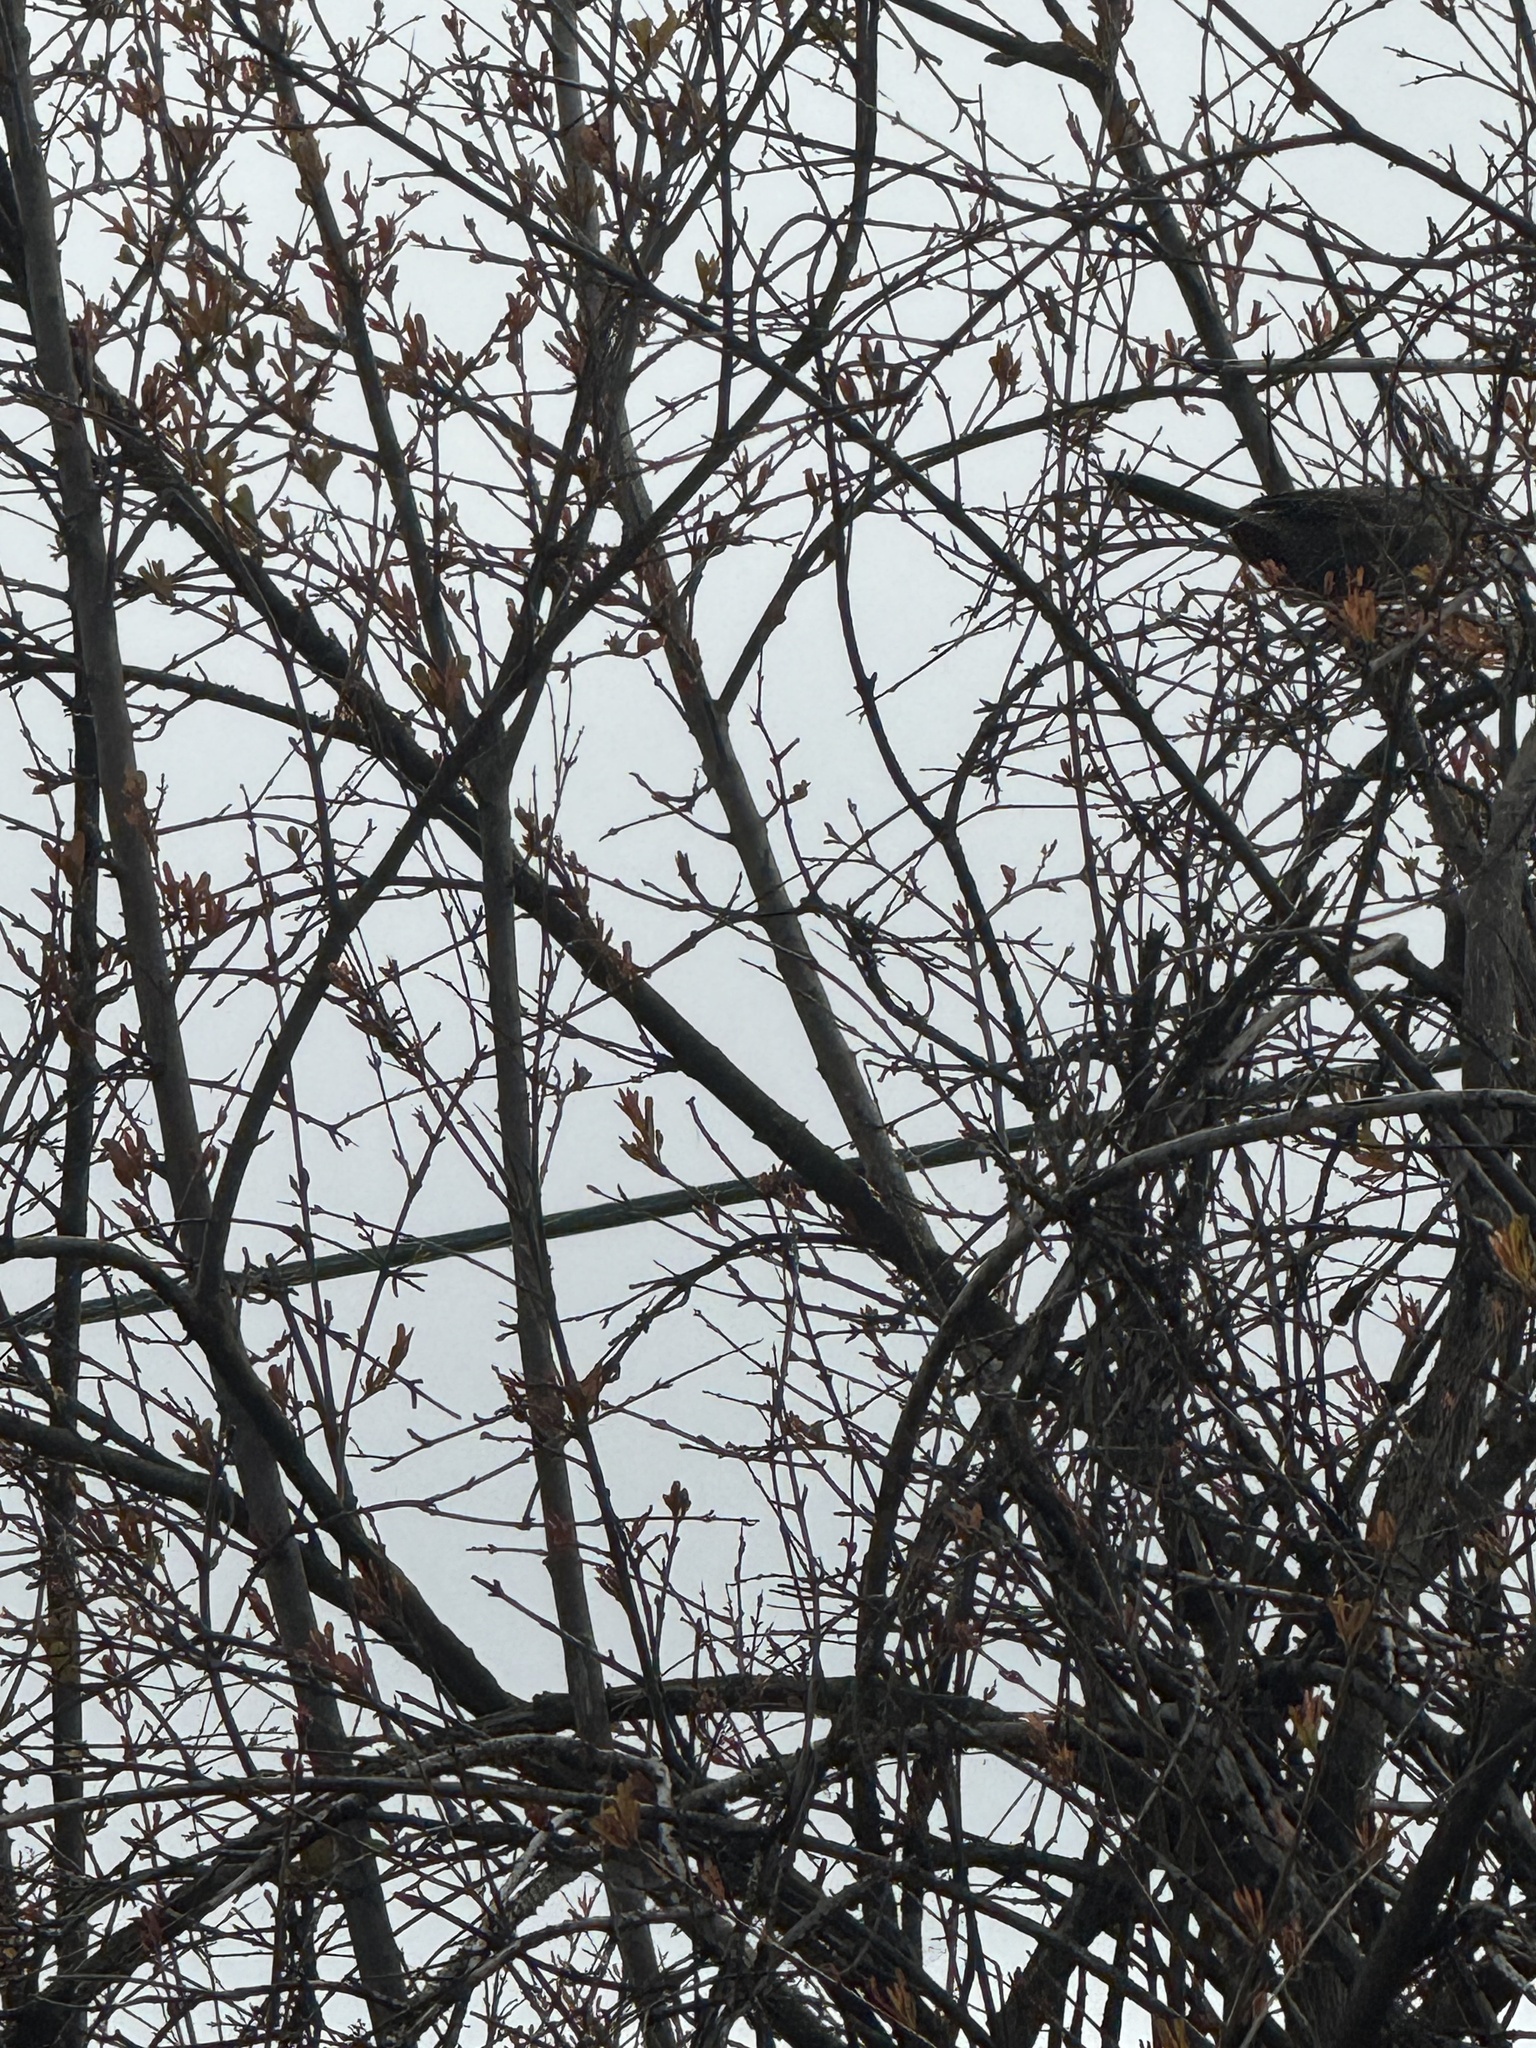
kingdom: Animalia
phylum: Chordata
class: Aves
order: Passeriformes
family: Passerellidae
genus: Melozone
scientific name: Melozone crissalis
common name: California towhee
